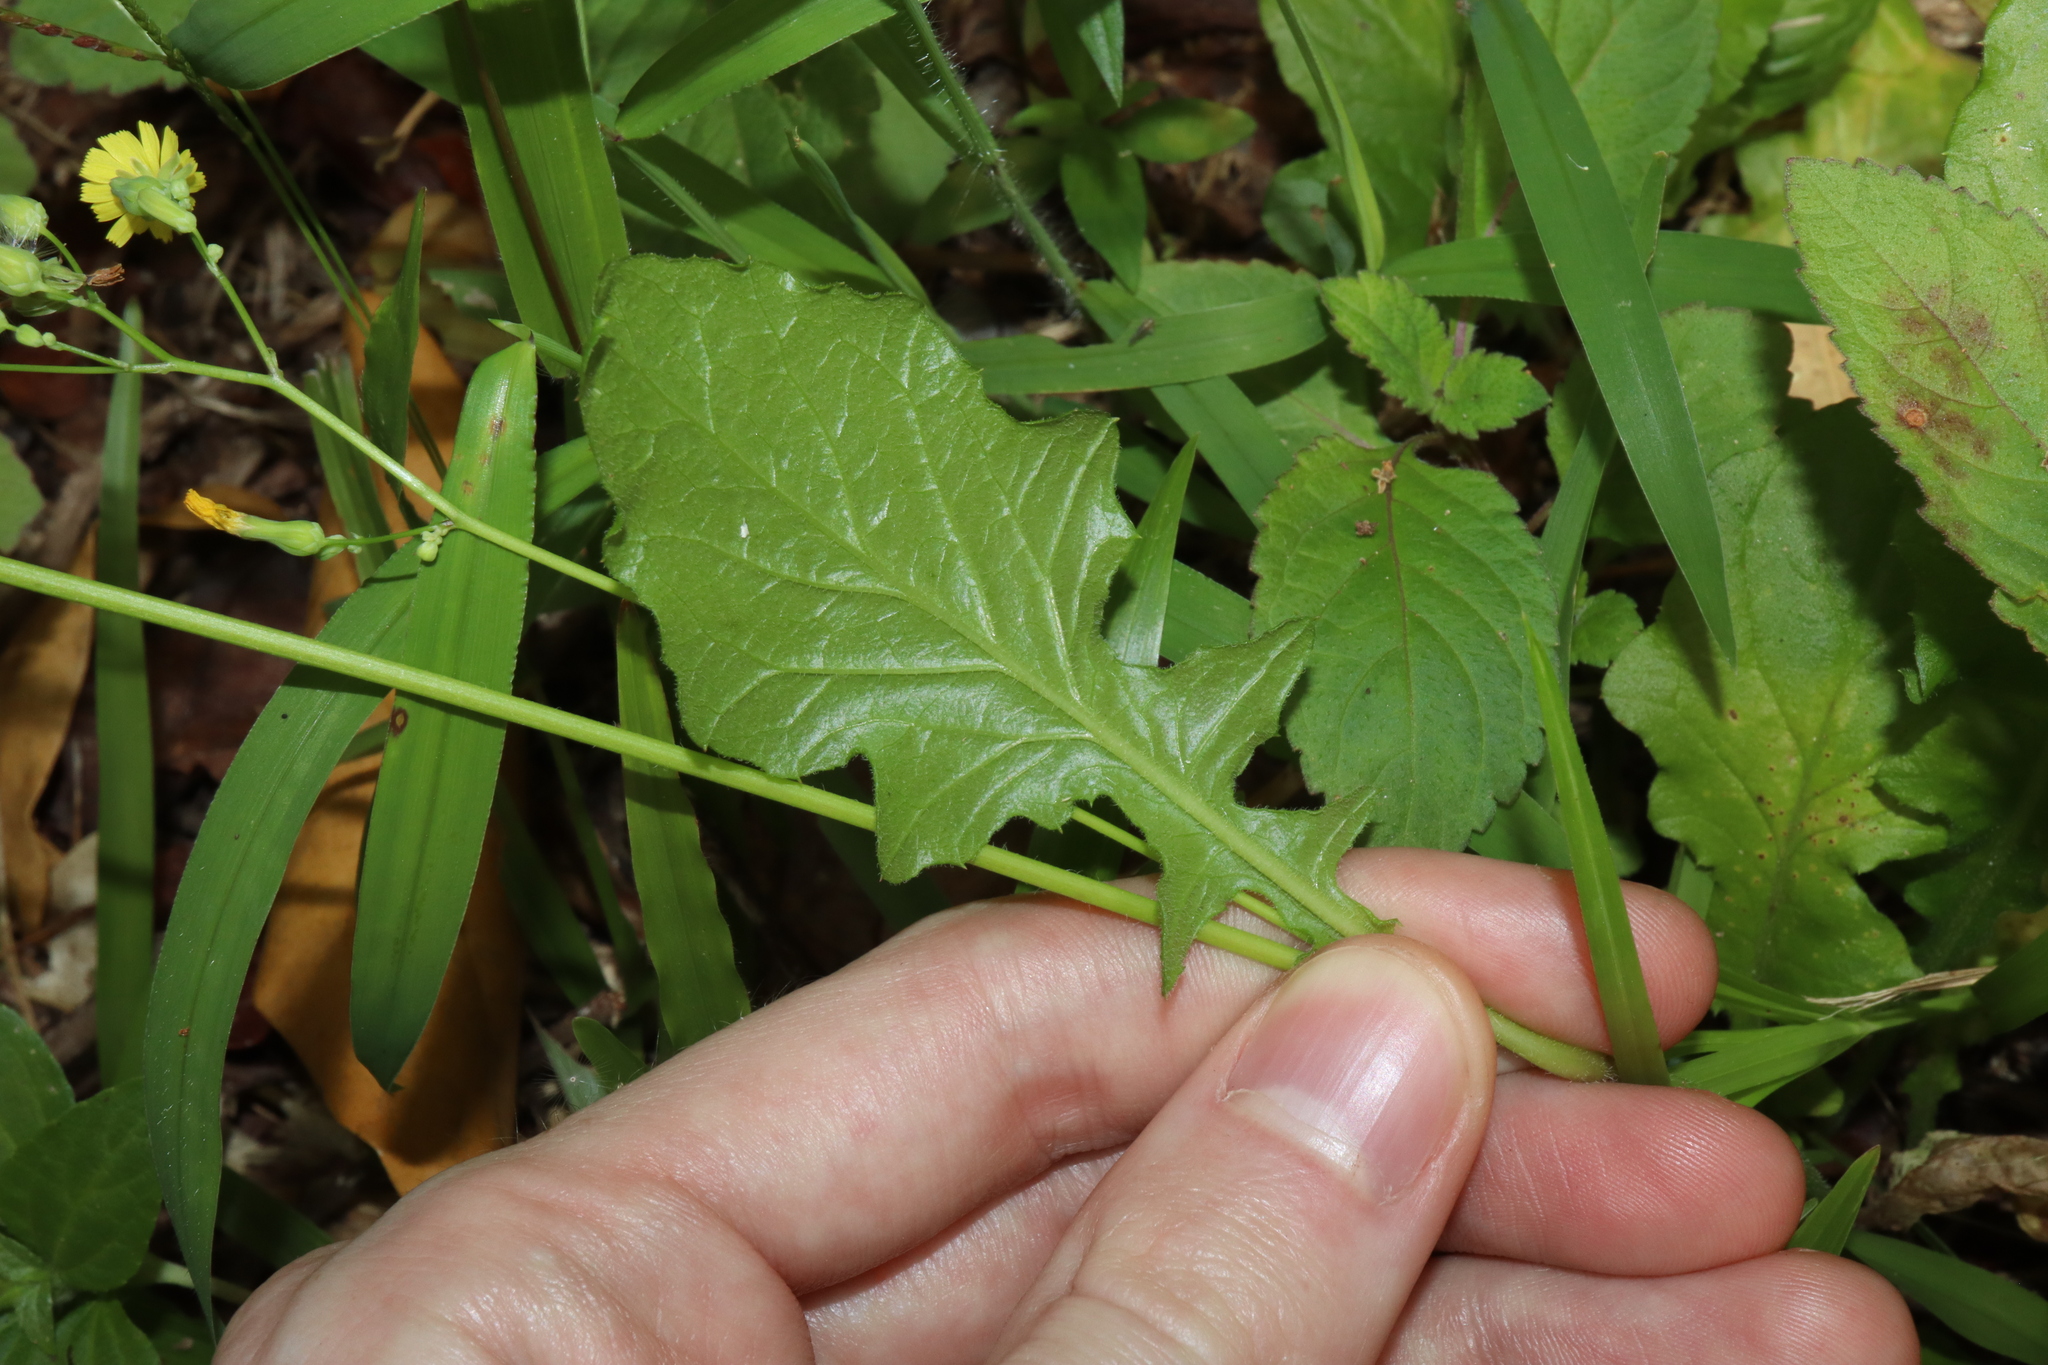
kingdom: Plantae
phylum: Tracheophyta
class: Magnoliopsida
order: Asterales
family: Asteraceae
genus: Youngia
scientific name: Youngia japonica
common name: Oriental false hawksbeard
